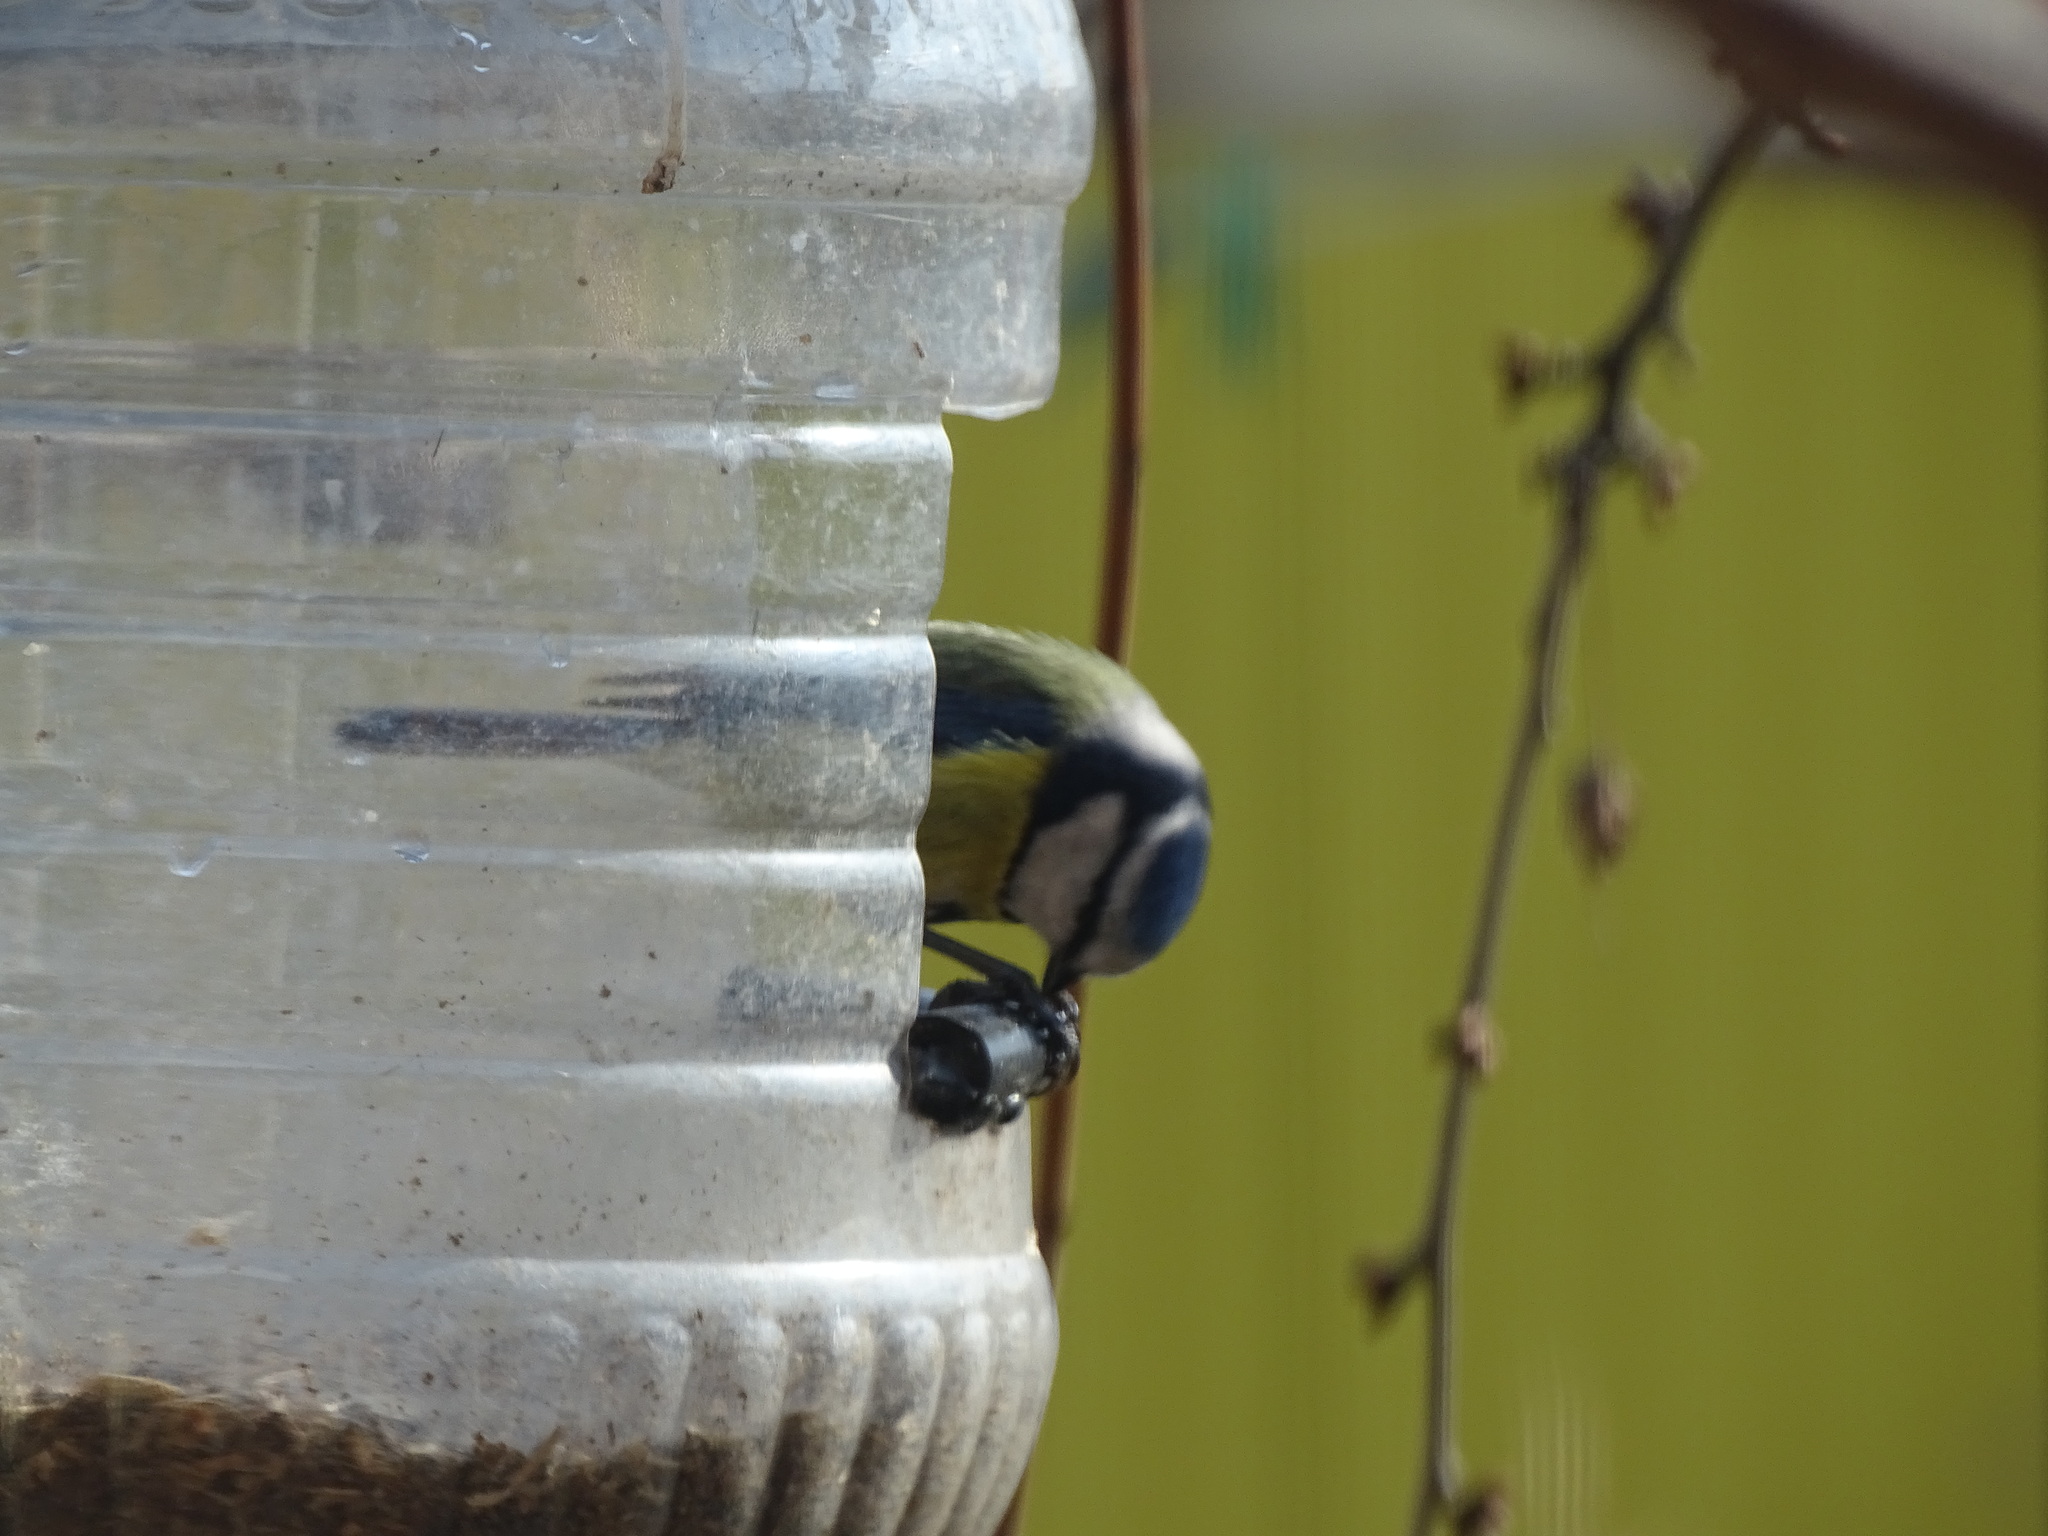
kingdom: Animalia
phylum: Chordata
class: Aves
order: Passeriformes
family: Paridae
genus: Cyanistes
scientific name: Cyanistes caeruleus
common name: Eurasian blue tit
